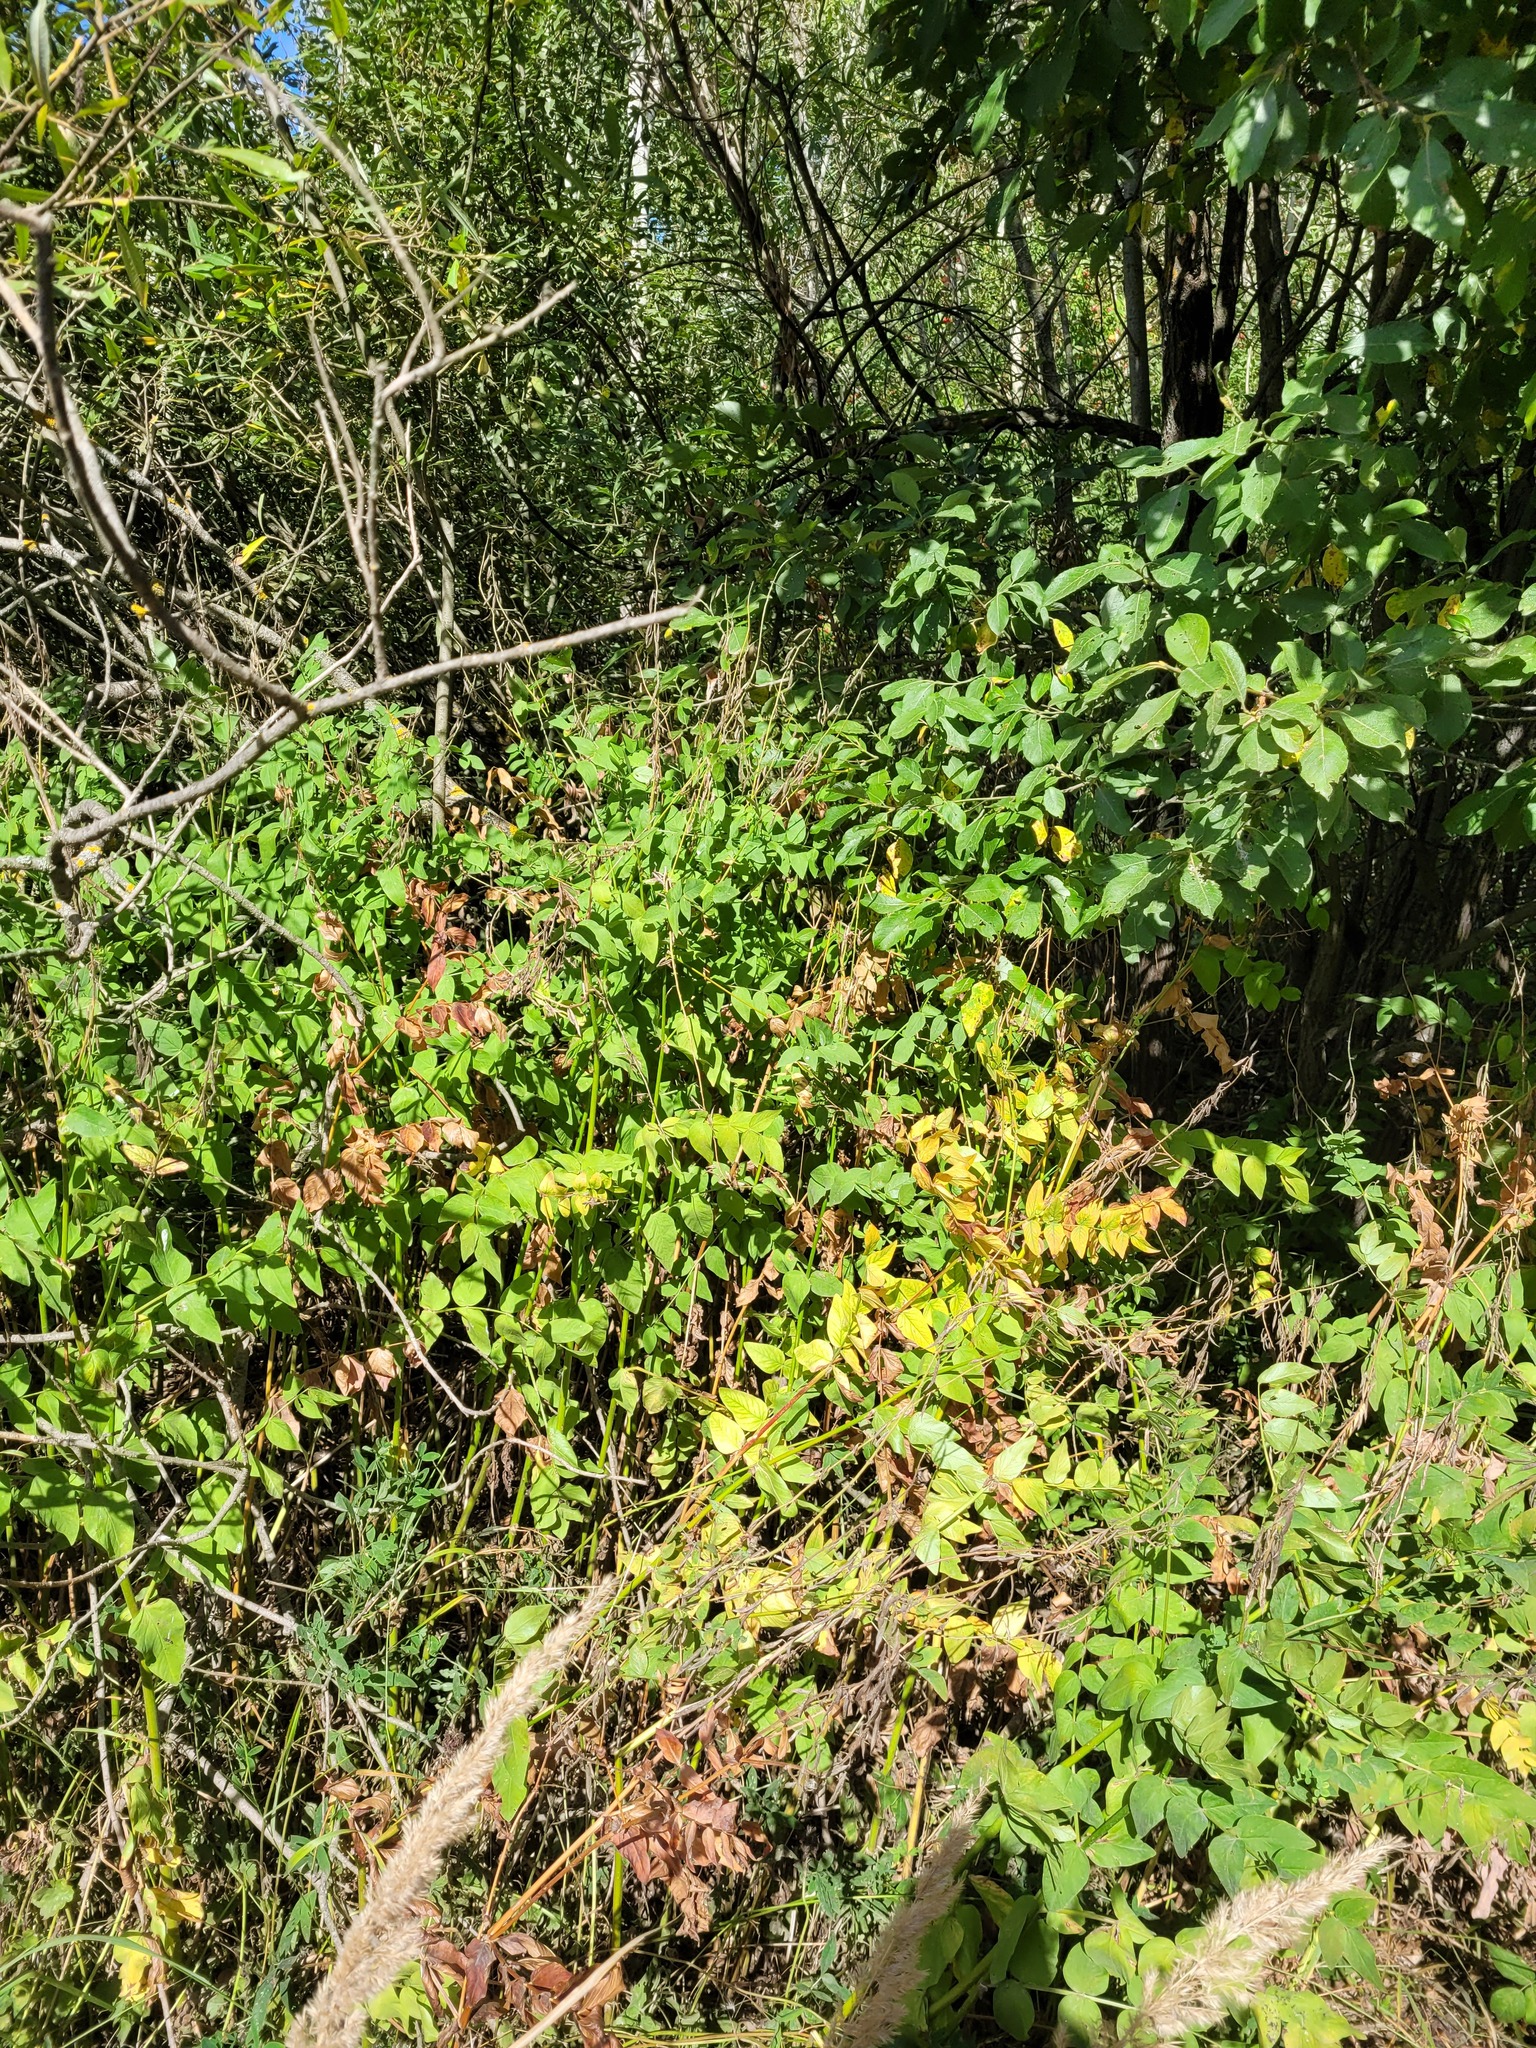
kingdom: Plantae
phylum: Tracheophyta
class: Magnoliopsida
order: Fabales
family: Fabaceae
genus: Galega
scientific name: Galega orientalis
